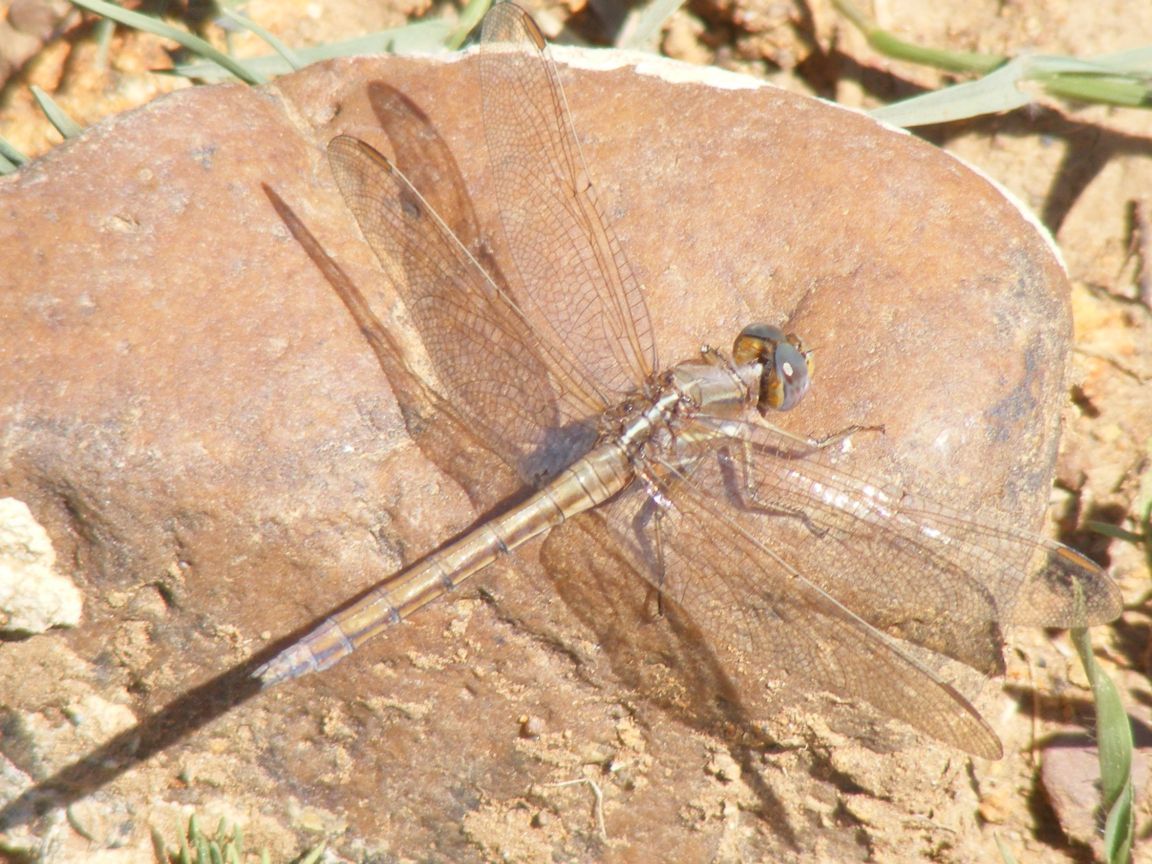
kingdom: Animalia
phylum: Arthropoda
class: Insecta
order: Odonata
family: Libellulidae
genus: Orthetrum
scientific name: Orthetrum caffrum
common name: Two-striped skimmer
